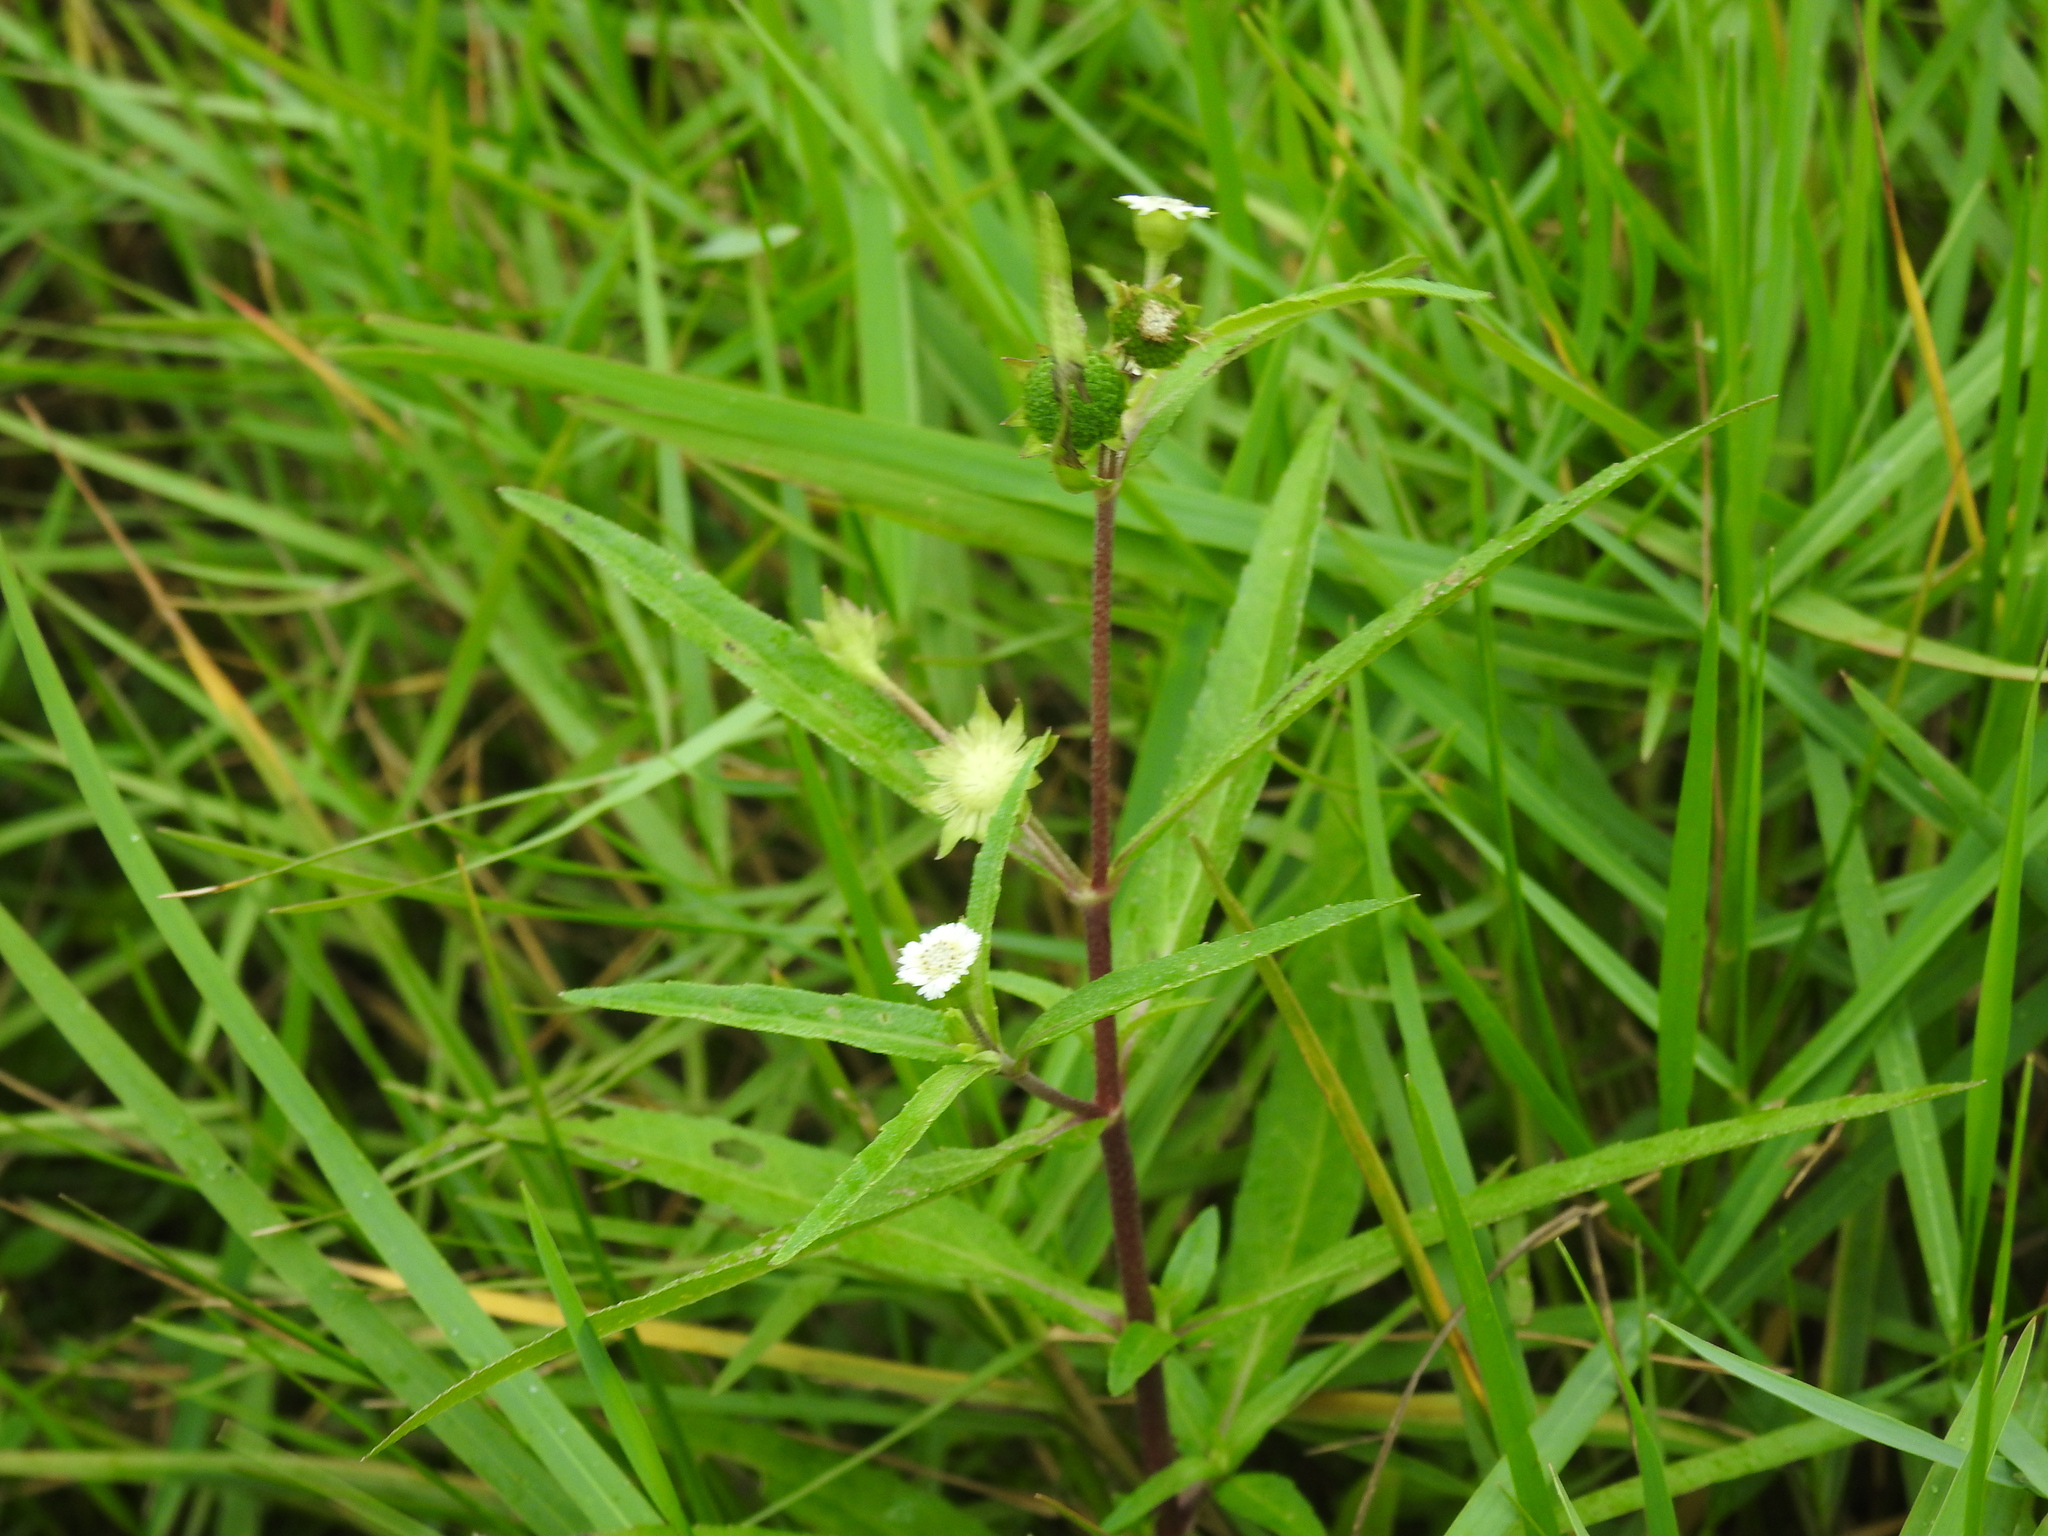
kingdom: Plantae
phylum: Tracheophyta
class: Magnoliopsida
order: Asterales
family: Asteraceae
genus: Eclipta
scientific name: Eclipta prostrata
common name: False daisy
